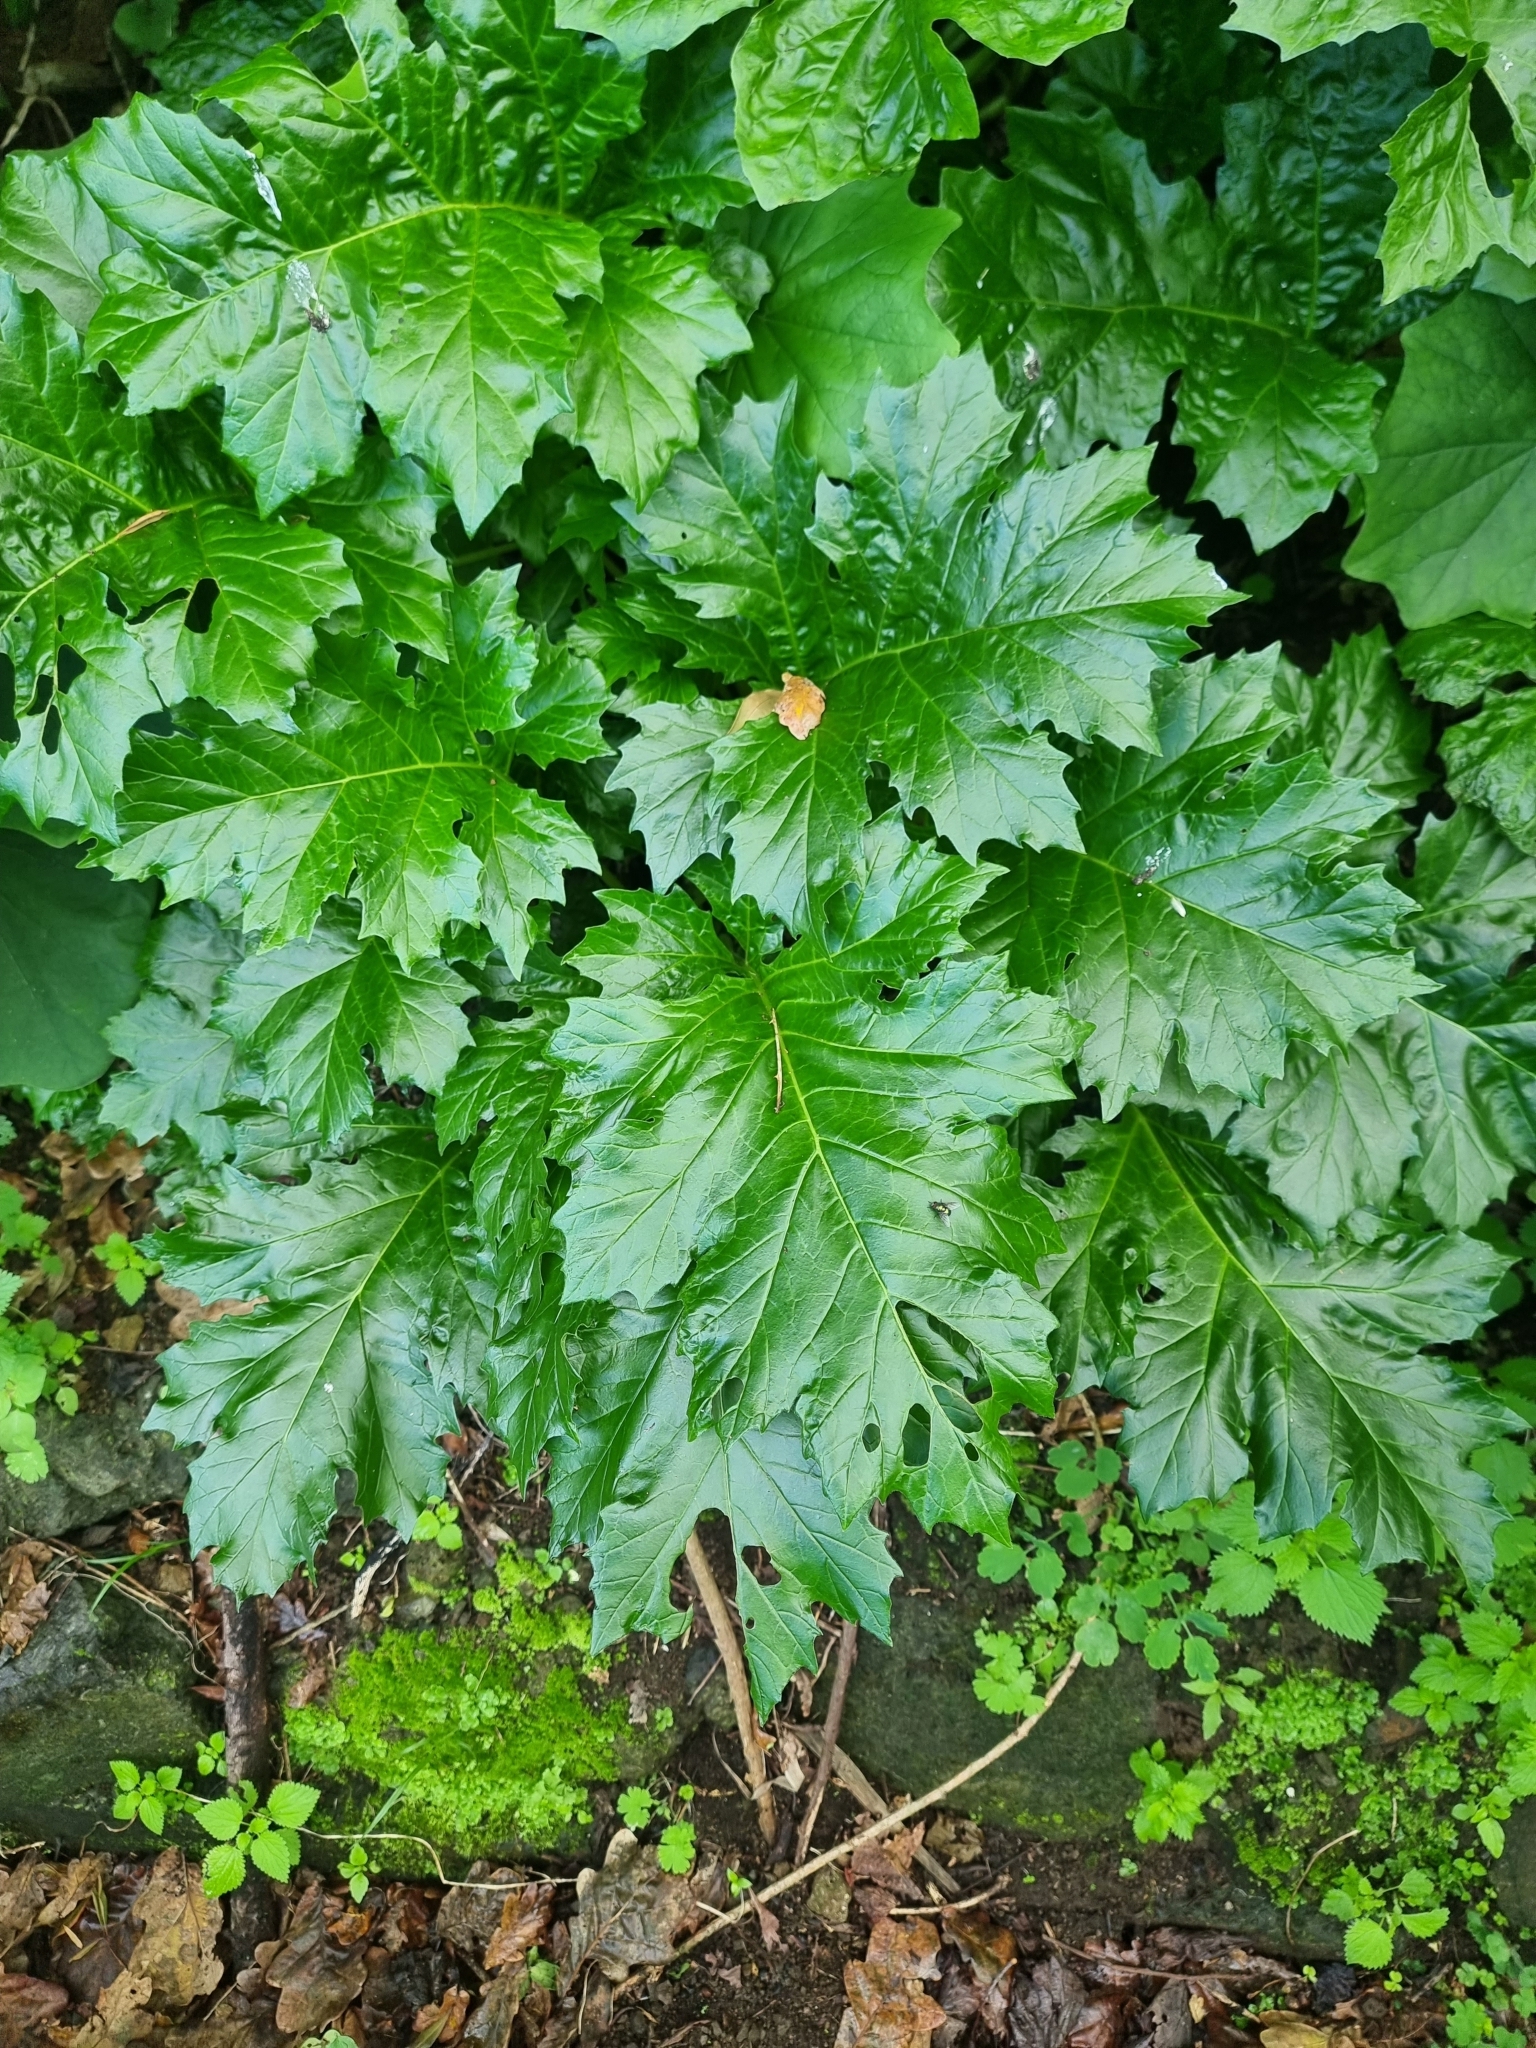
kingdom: Plantae
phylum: Tracheophyta
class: Magnoliopsida
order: Lamiales
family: Acanthaceae
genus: Acanthus
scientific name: Acanthus mollis
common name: Bear's-breech
